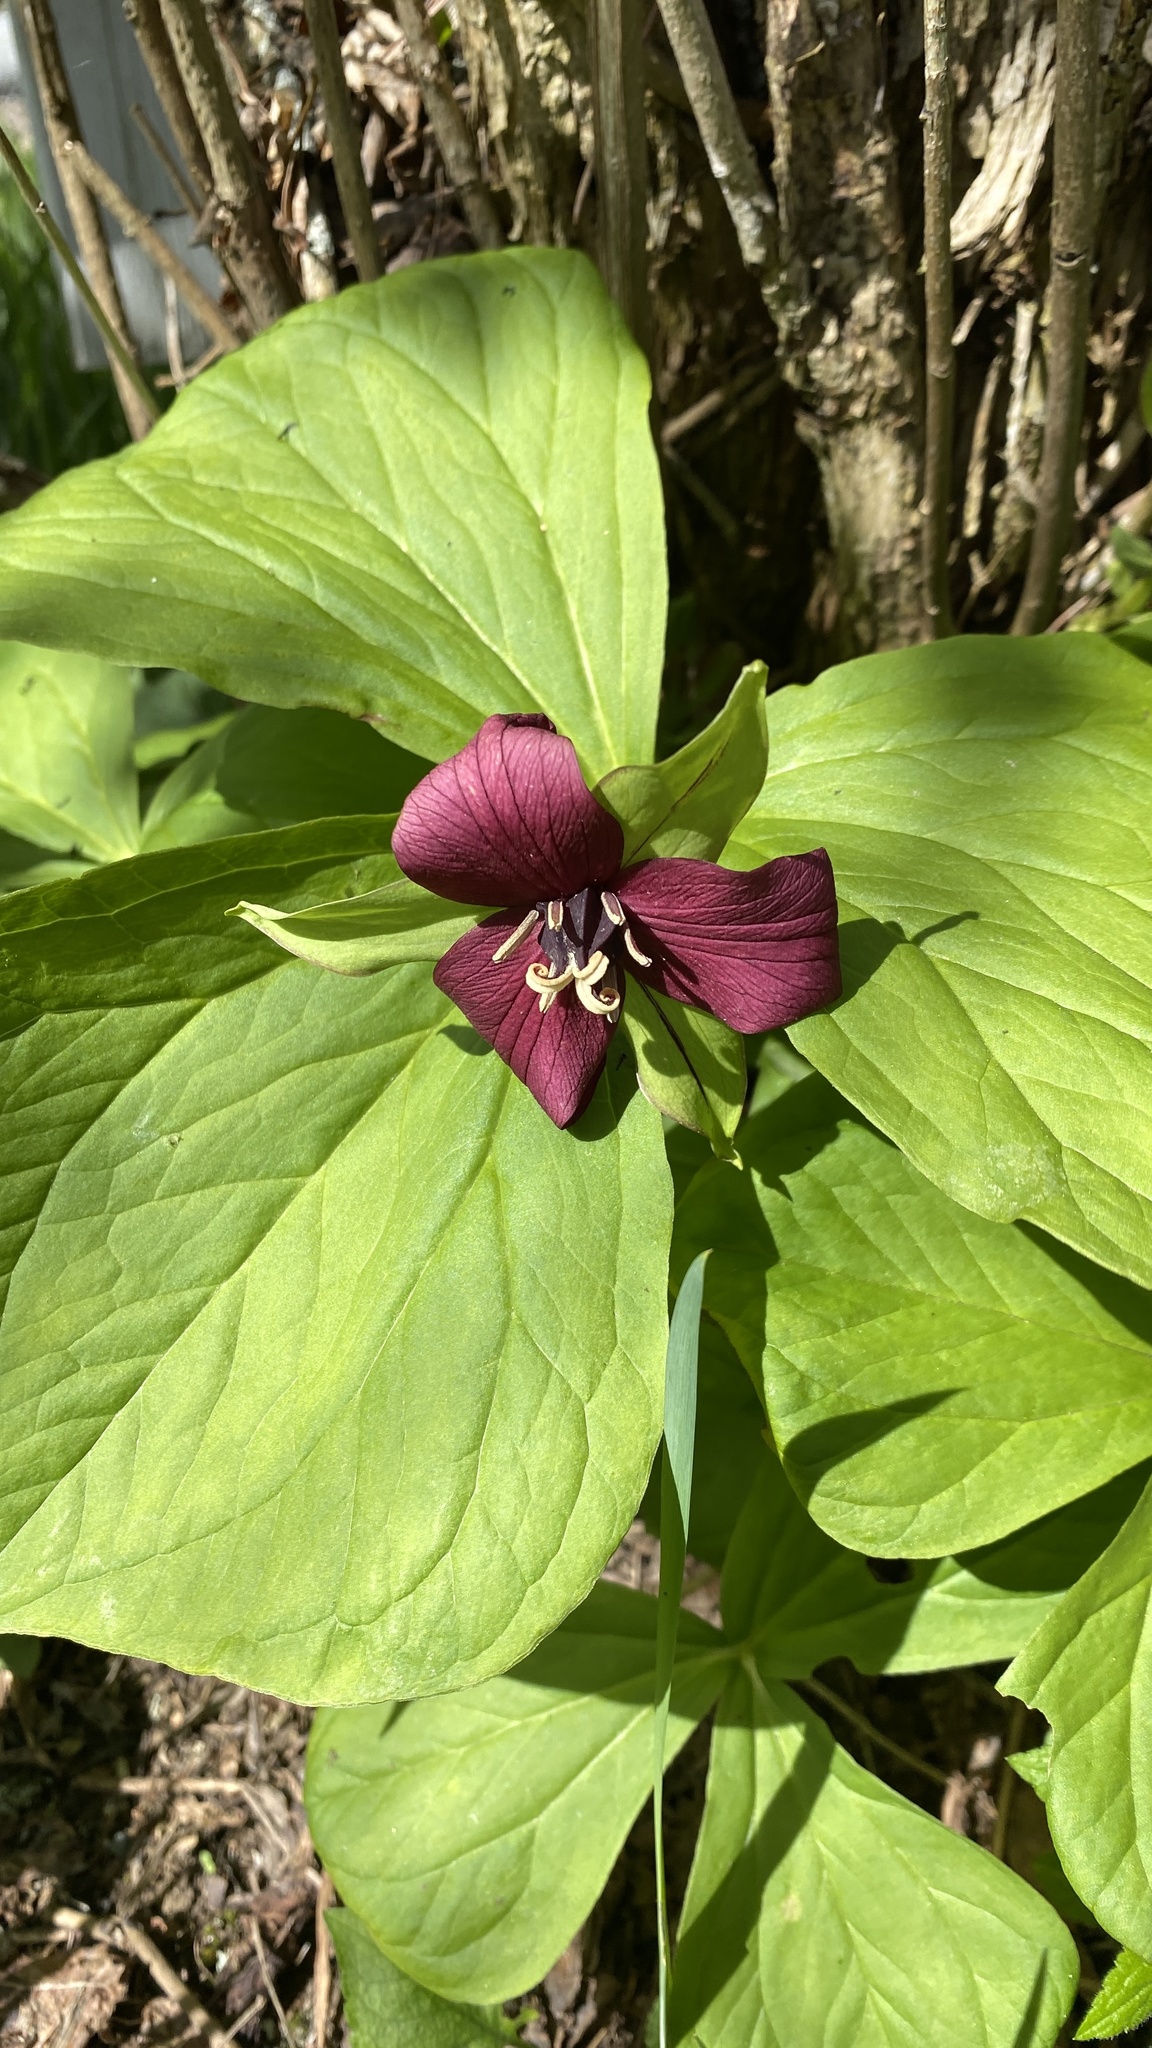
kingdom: Plantae
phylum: Tracheophyta
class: Liliopsida
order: Liliales
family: Melanthiaceae
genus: Trillium
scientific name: Trillium erectum
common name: Purple trillium
